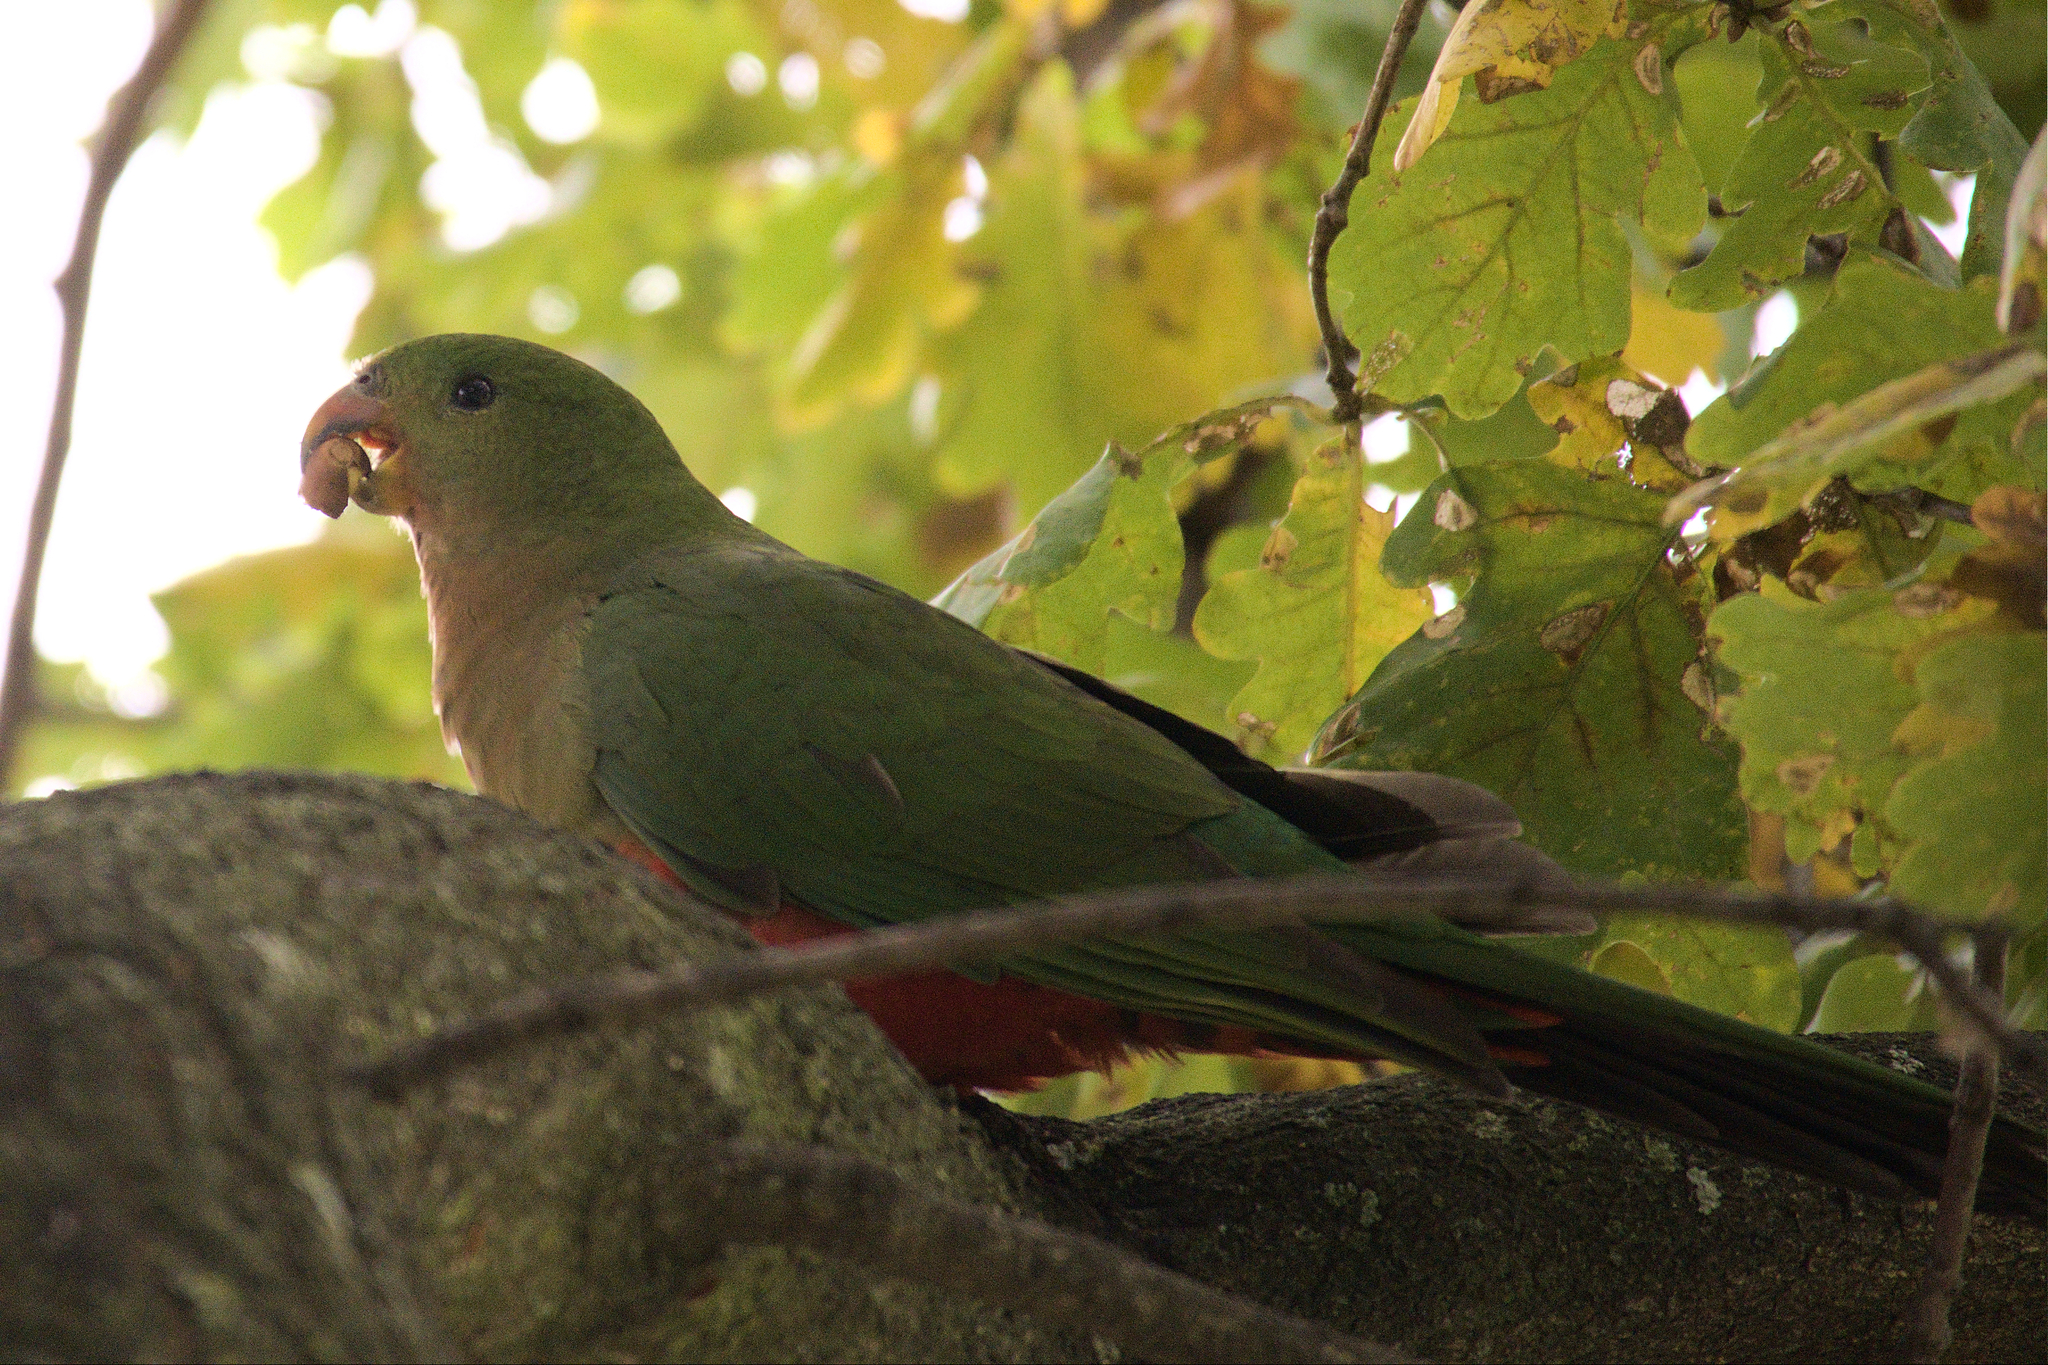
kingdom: Animalia
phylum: Chordata
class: Aves
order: Psittaciformes
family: Psittacidae
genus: Alisterus
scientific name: Alisterus scapularis
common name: Australian king parrot
